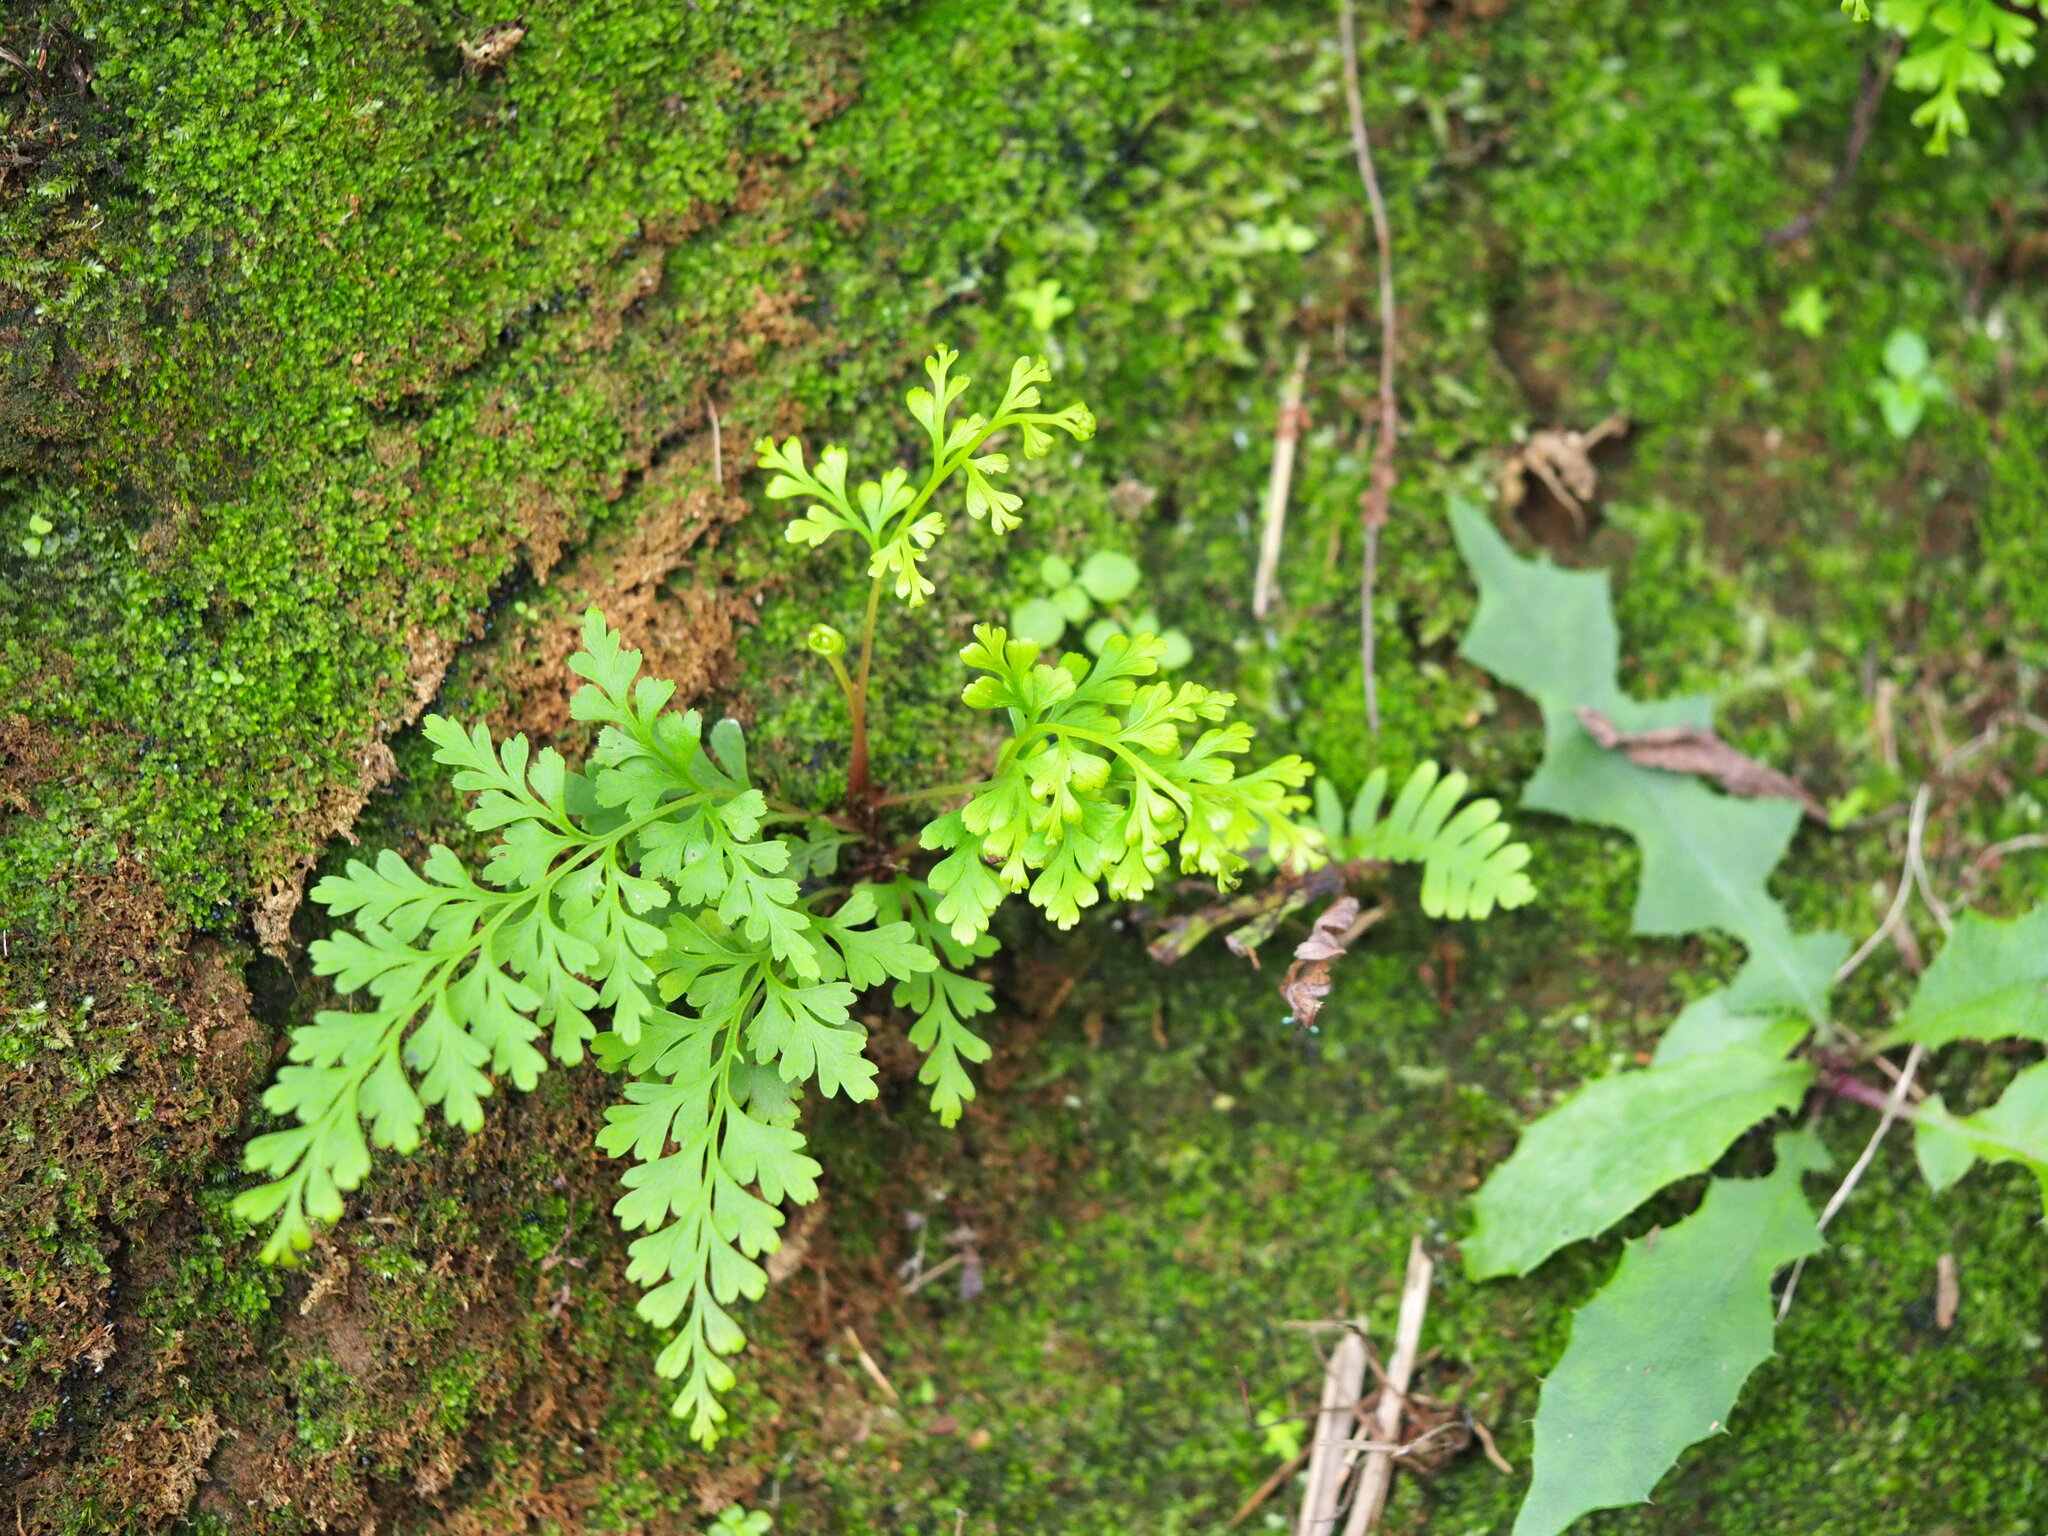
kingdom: Plantae
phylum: Tracheophyta
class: Polypodiopsida
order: Polypodiales
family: Lindsaeaceae
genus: Odontosoria
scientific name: Odontosoria chinensis
